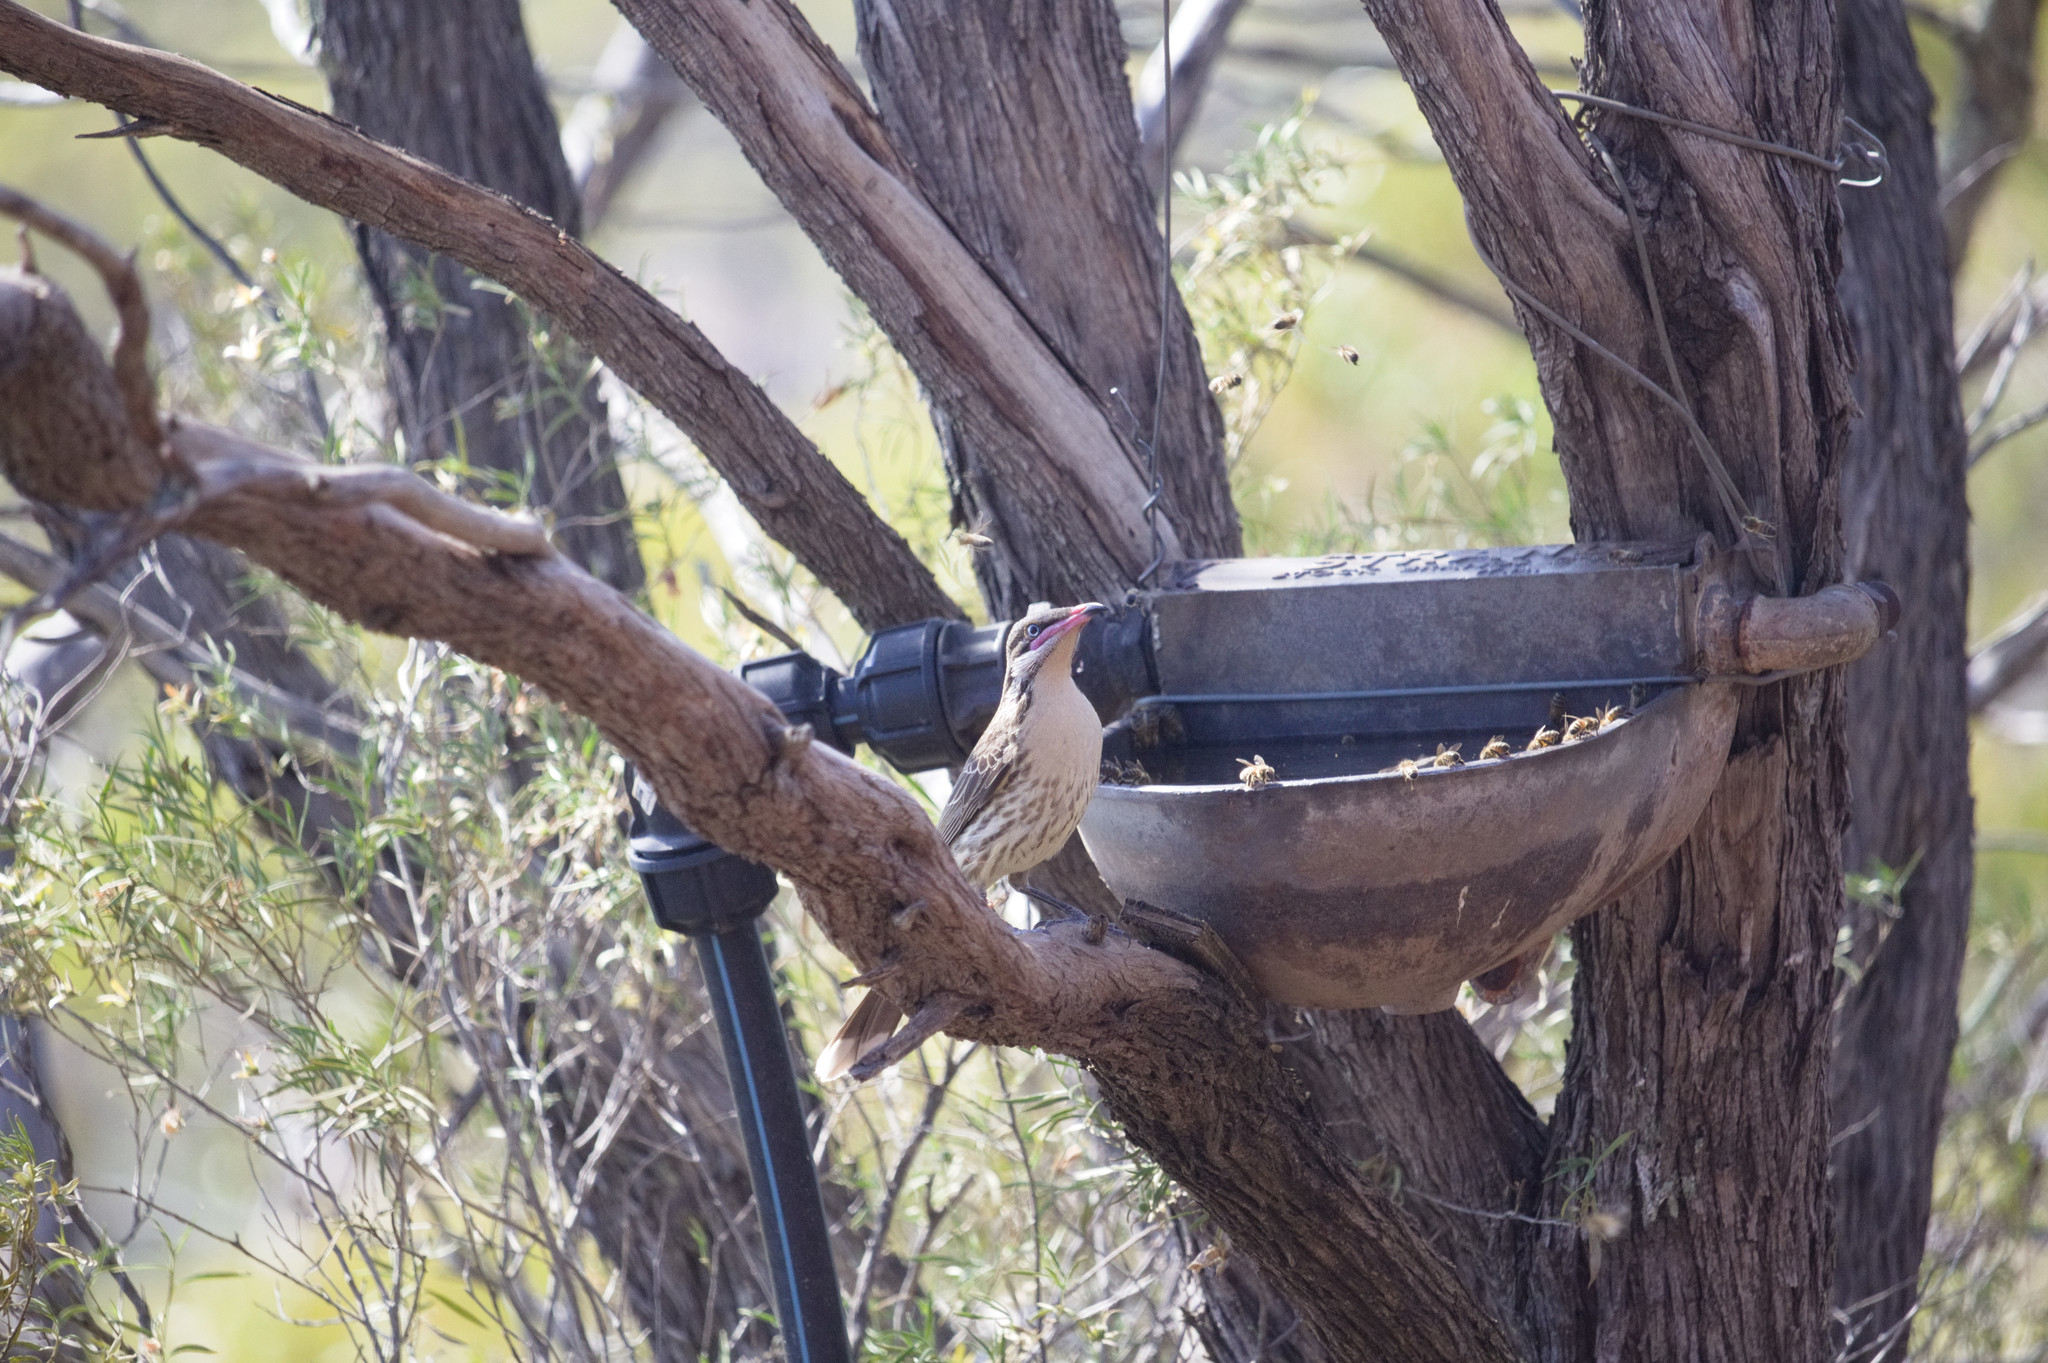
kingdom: Animalia
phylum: Chordata
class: Aves
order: Passeriformes
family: Meliphagidae
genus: Acanthagenys
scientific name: Acanthagenys rufogularis
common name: Spiny-cheeked honeyeater
